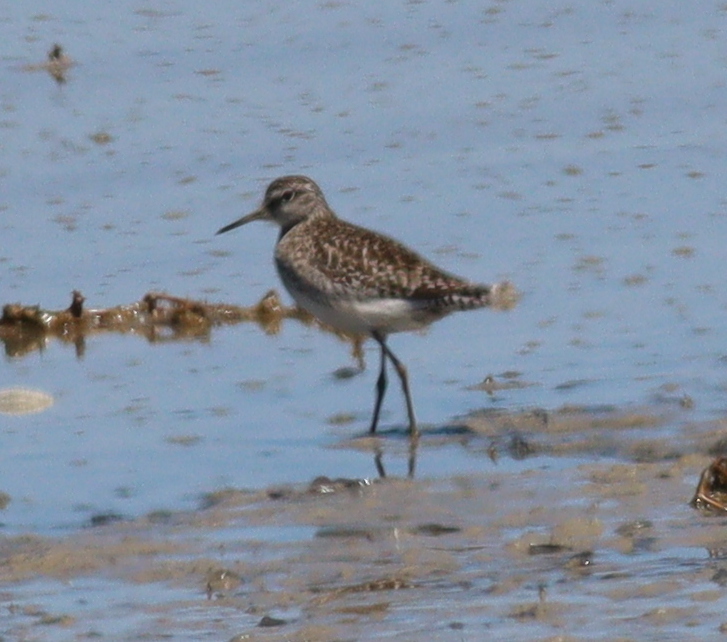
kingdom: Animalia
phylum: Chordata
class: Aves
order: Charadriiformes
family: Scolopacidae
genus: Tringa
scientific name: Tringa glareola
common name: Wood sandpiper
